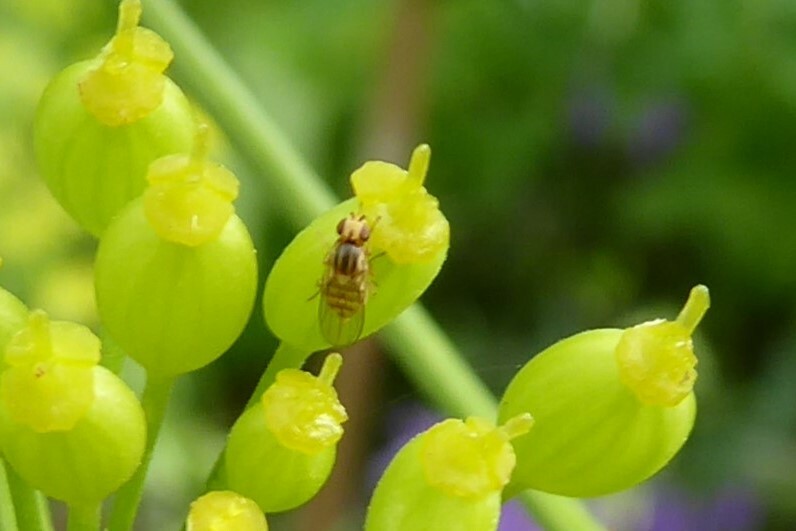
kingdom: Animalia
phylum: Arthropoda
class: Insecta
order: Diptera
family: Chloropidae
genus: Aphanotrigonum
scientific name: Aphanotrigonum huttoni
